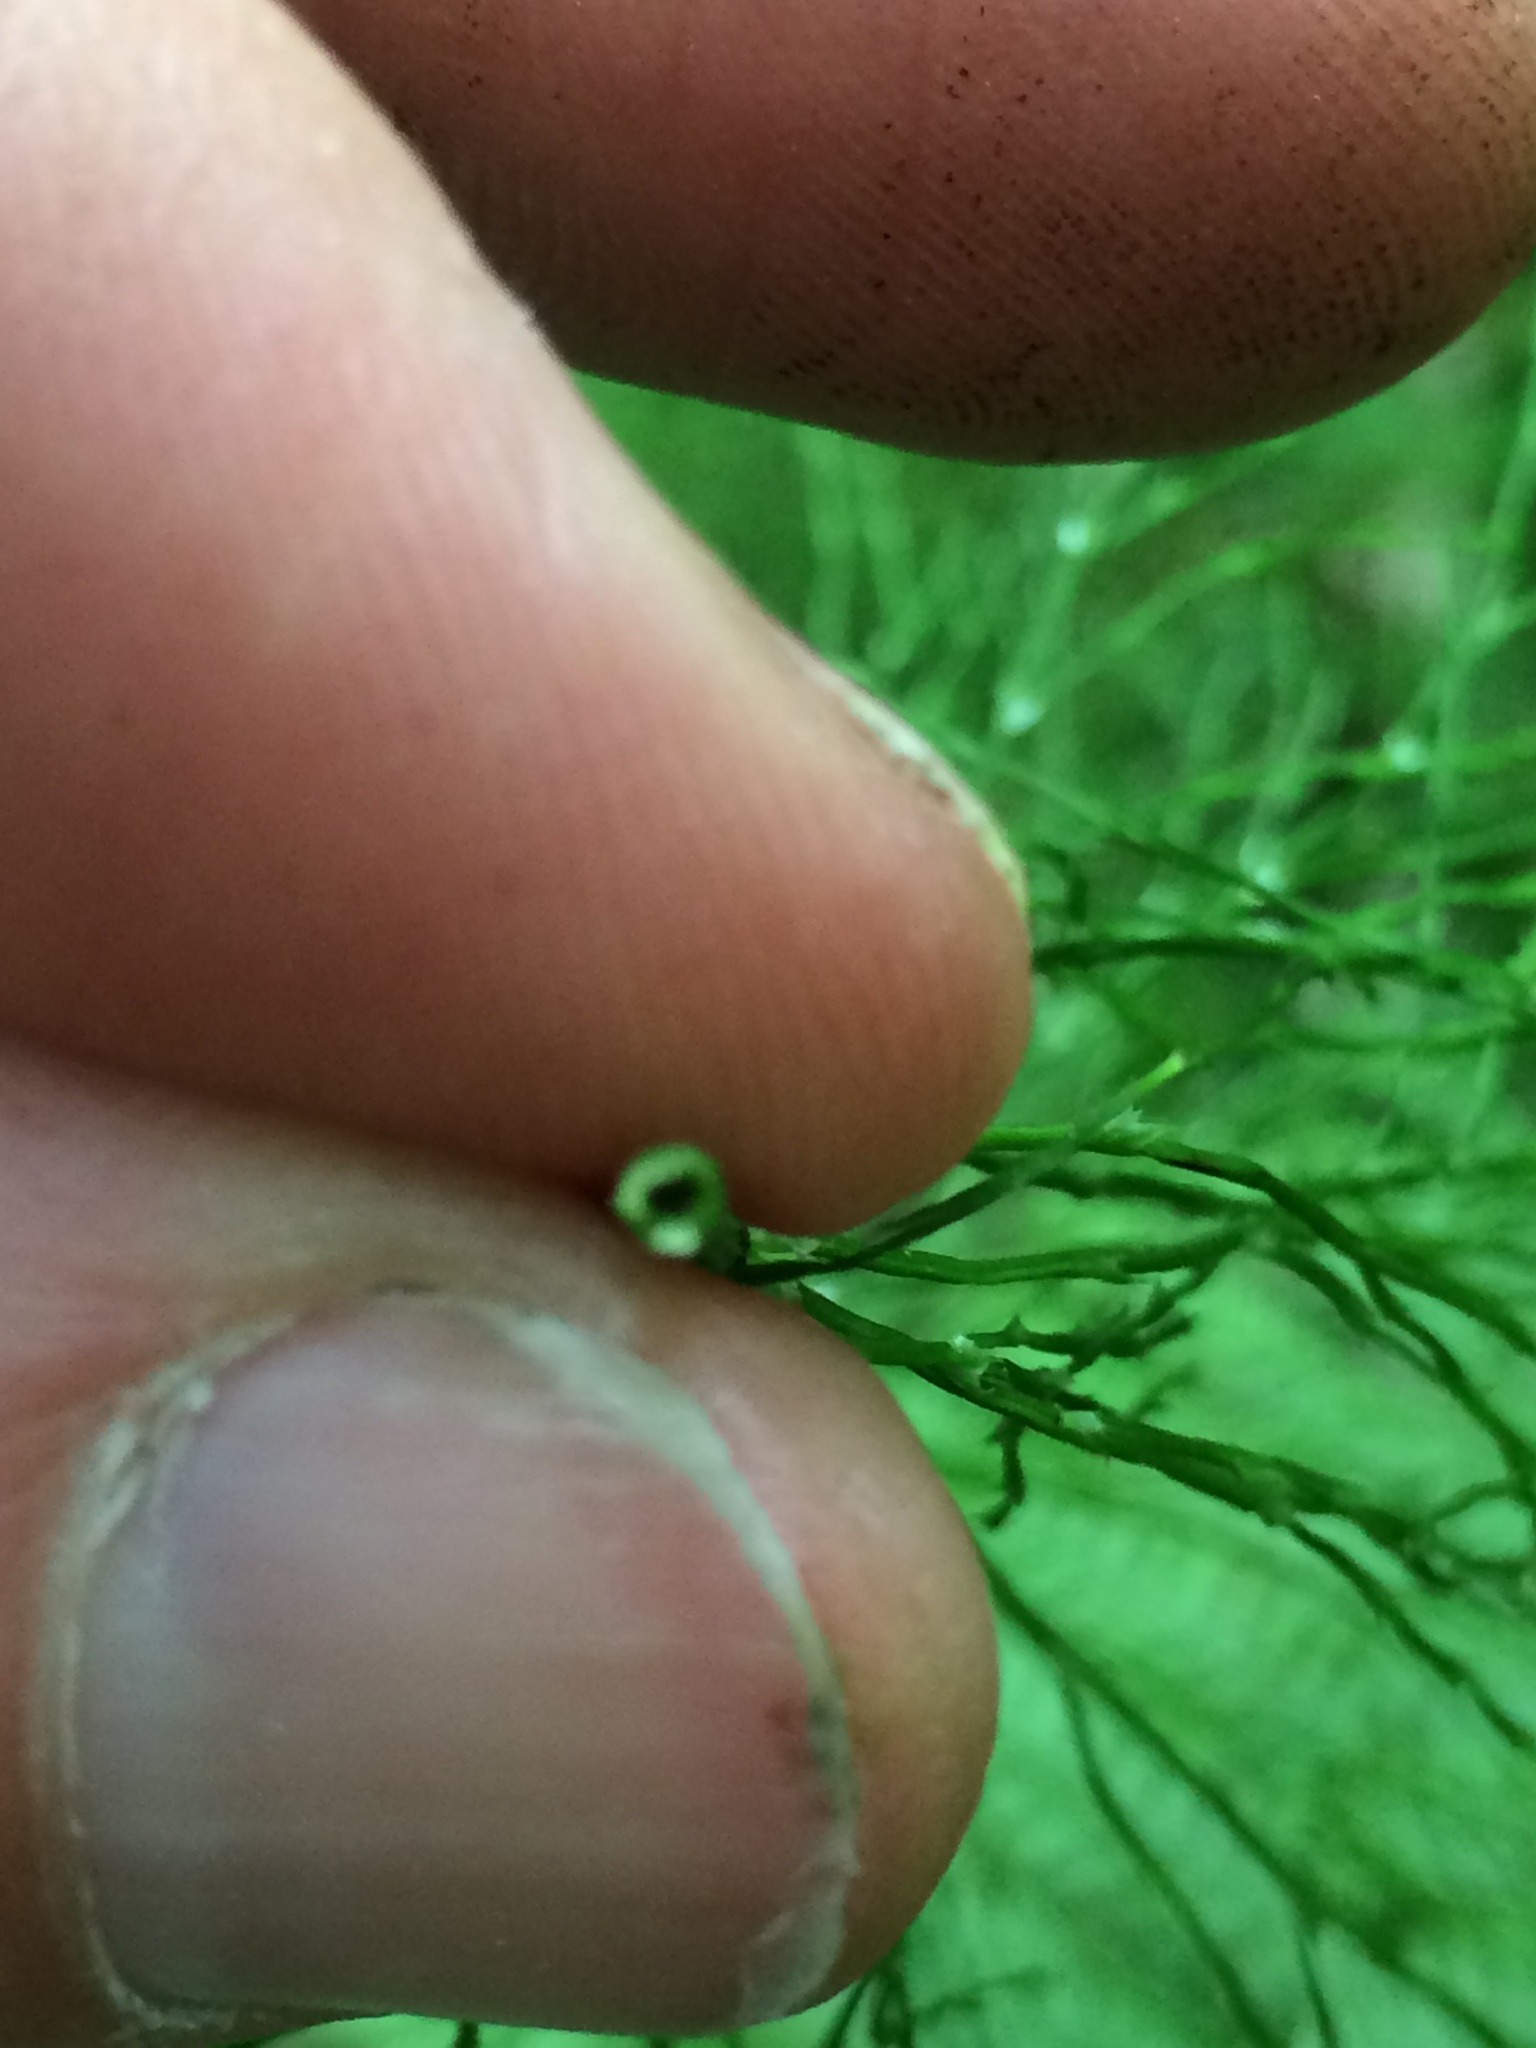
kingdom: Plantae
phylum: Tracheophyta
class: Polypodiopsida
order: Equisetales
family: Equisetaceae
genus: Equisetum
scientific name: Equisetum sylvaticum
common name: Wood horsetail
